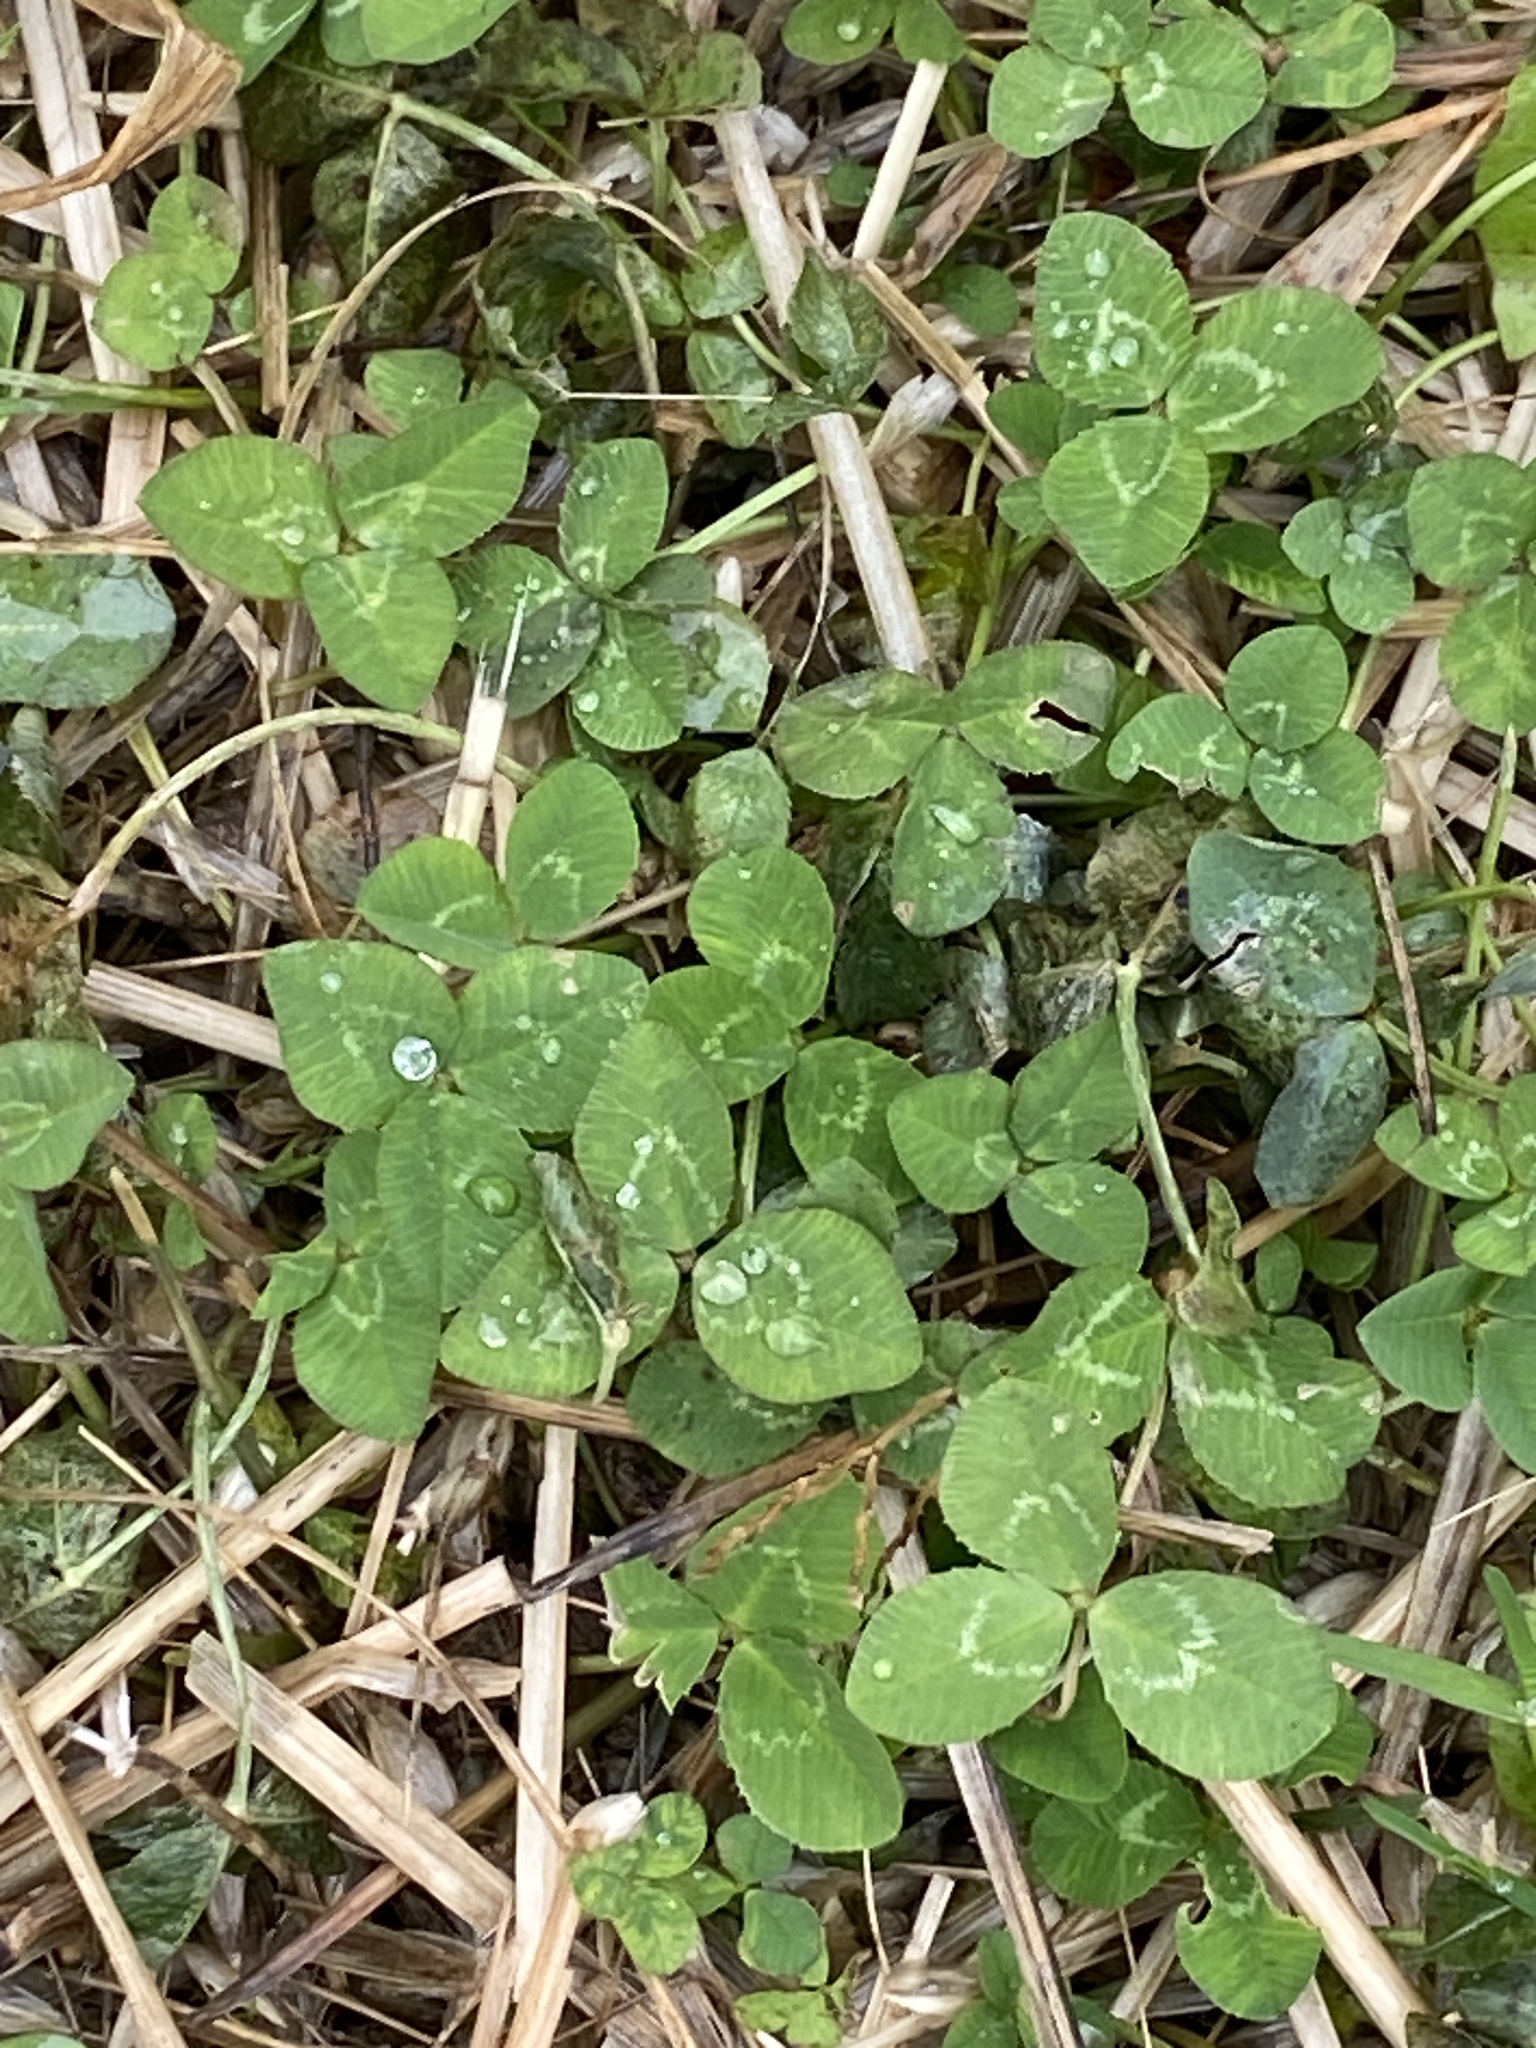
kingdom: Plantae
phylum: Tracheophyta
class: Magnoliopsida
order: Fabales
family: Fabaceae
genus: Trifolium
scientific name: Trifolium repens
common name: White clover
